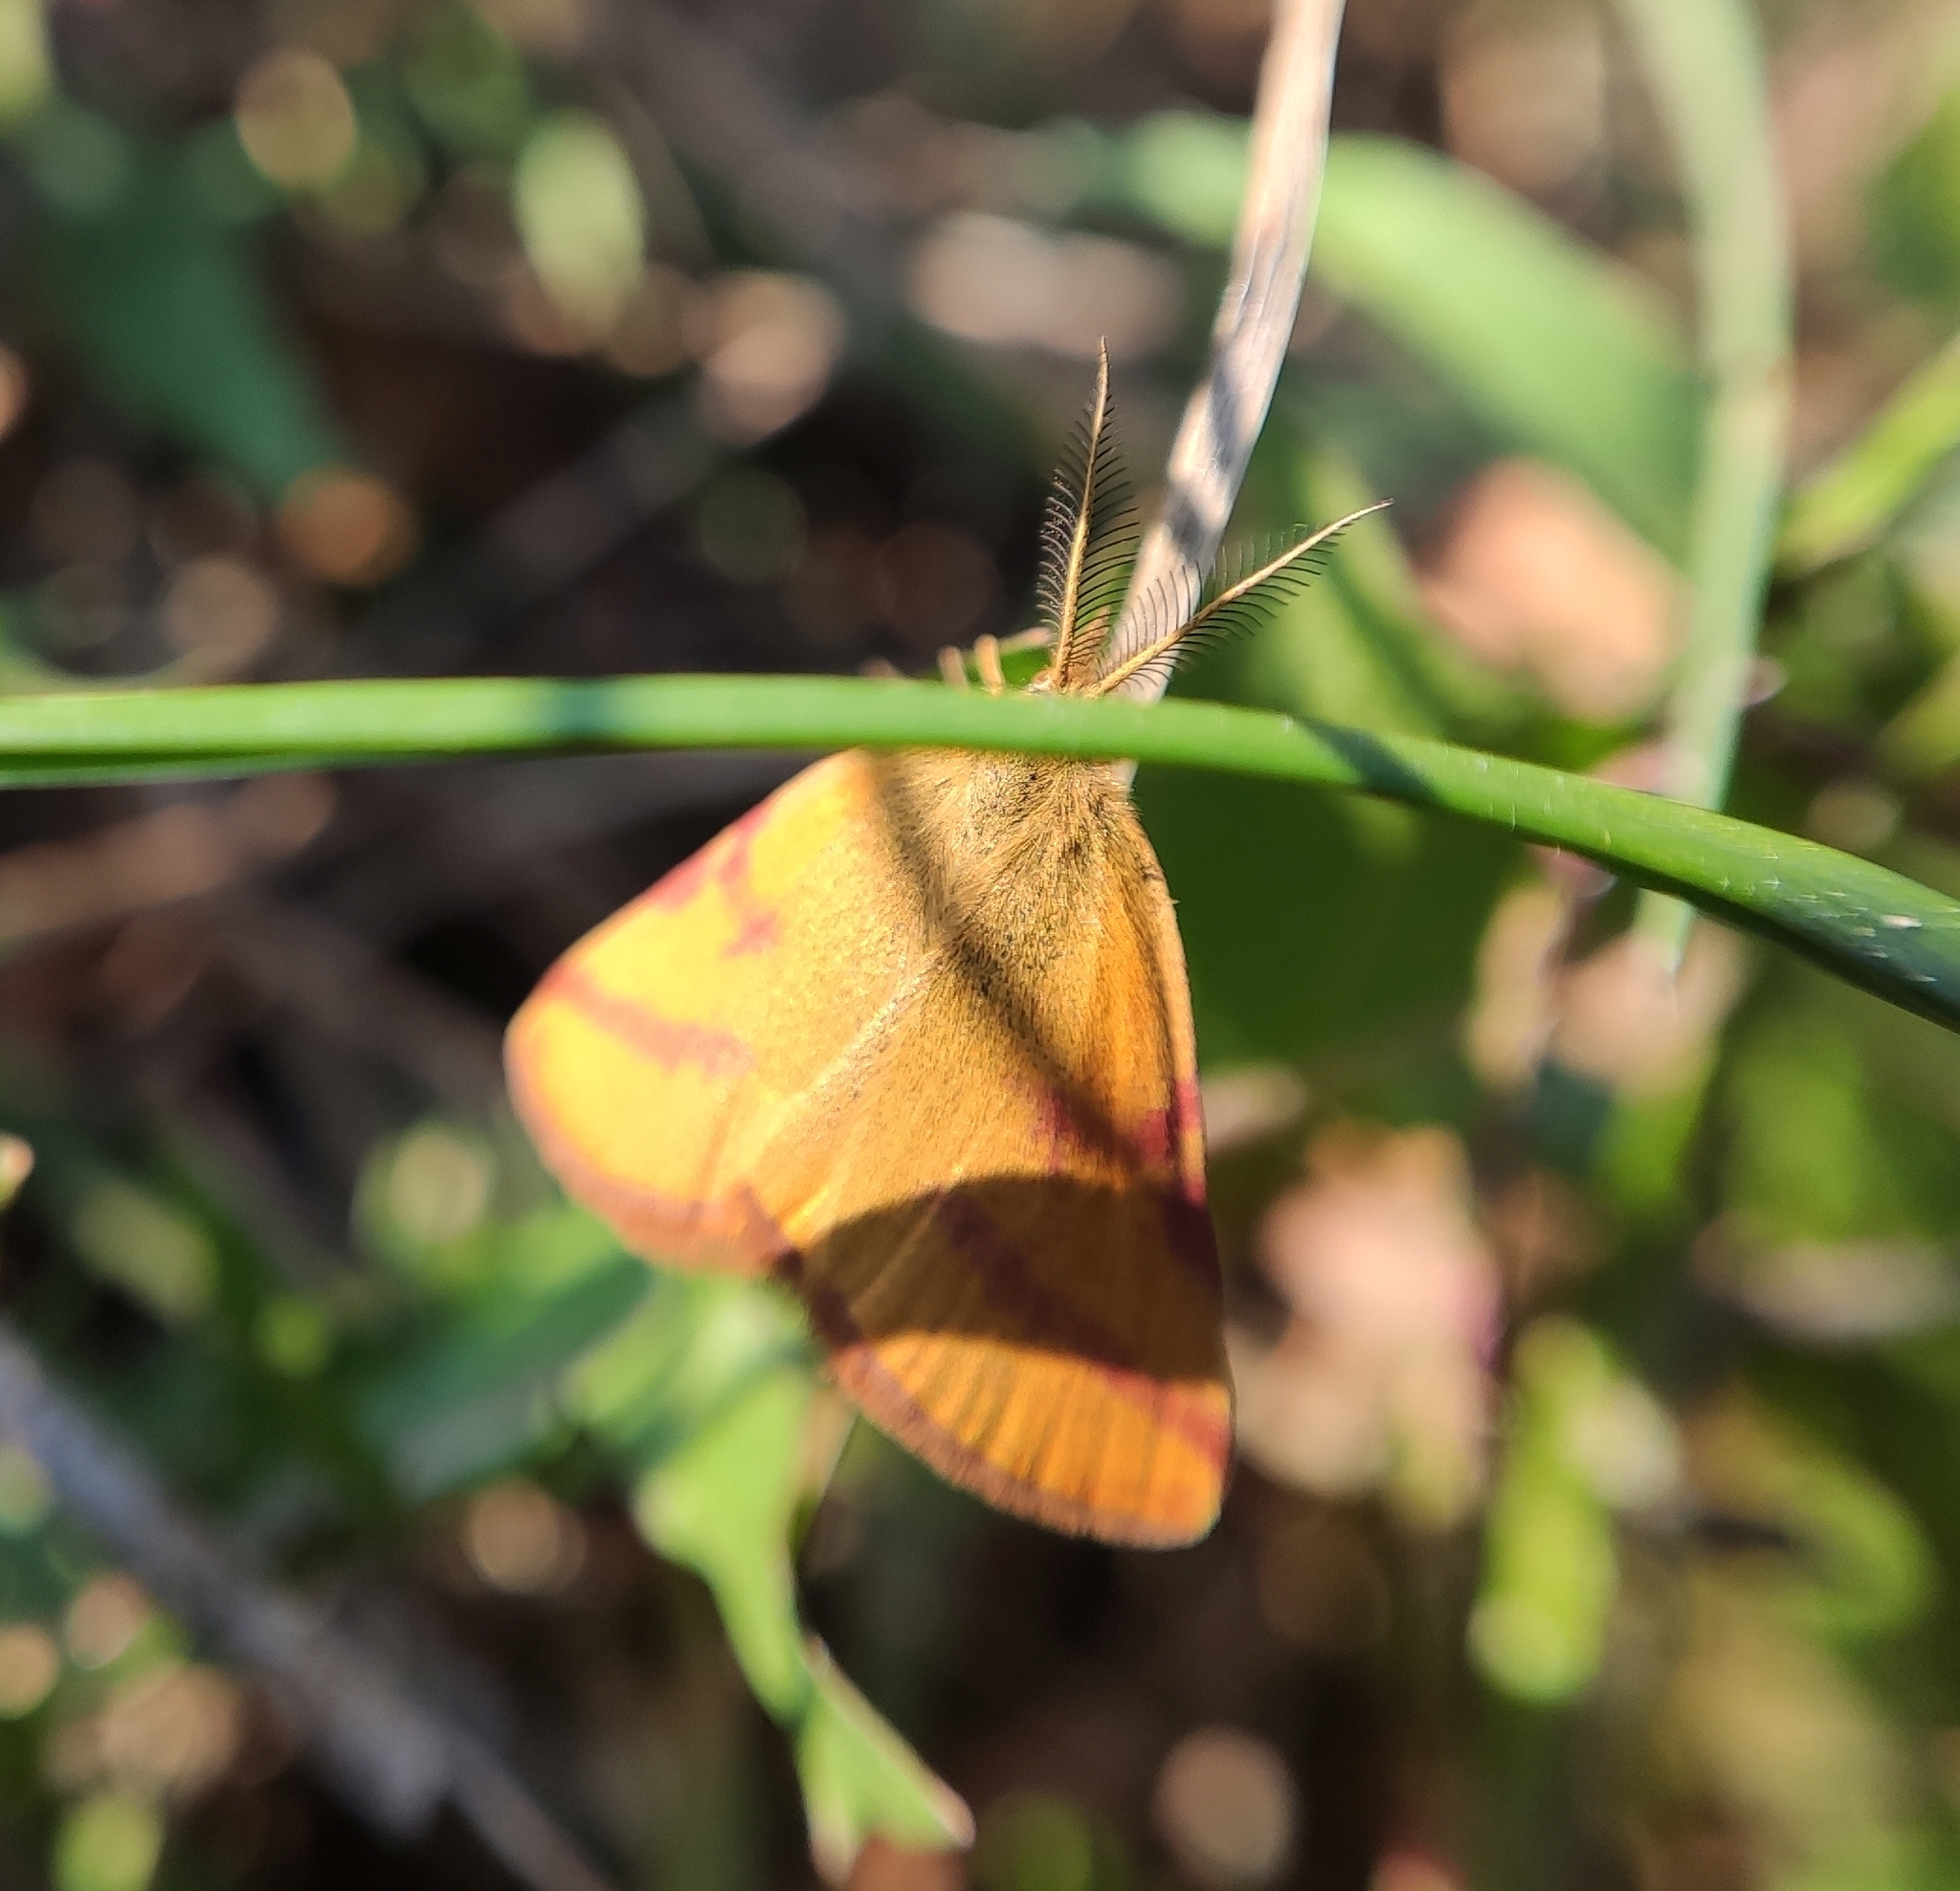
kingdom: Animalia
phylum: Arthropoda
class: Insecta
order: Lepidoptera
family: Geometridae
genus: Lythria
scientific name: Lythria purpuraria
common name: Purple-barred yellow
